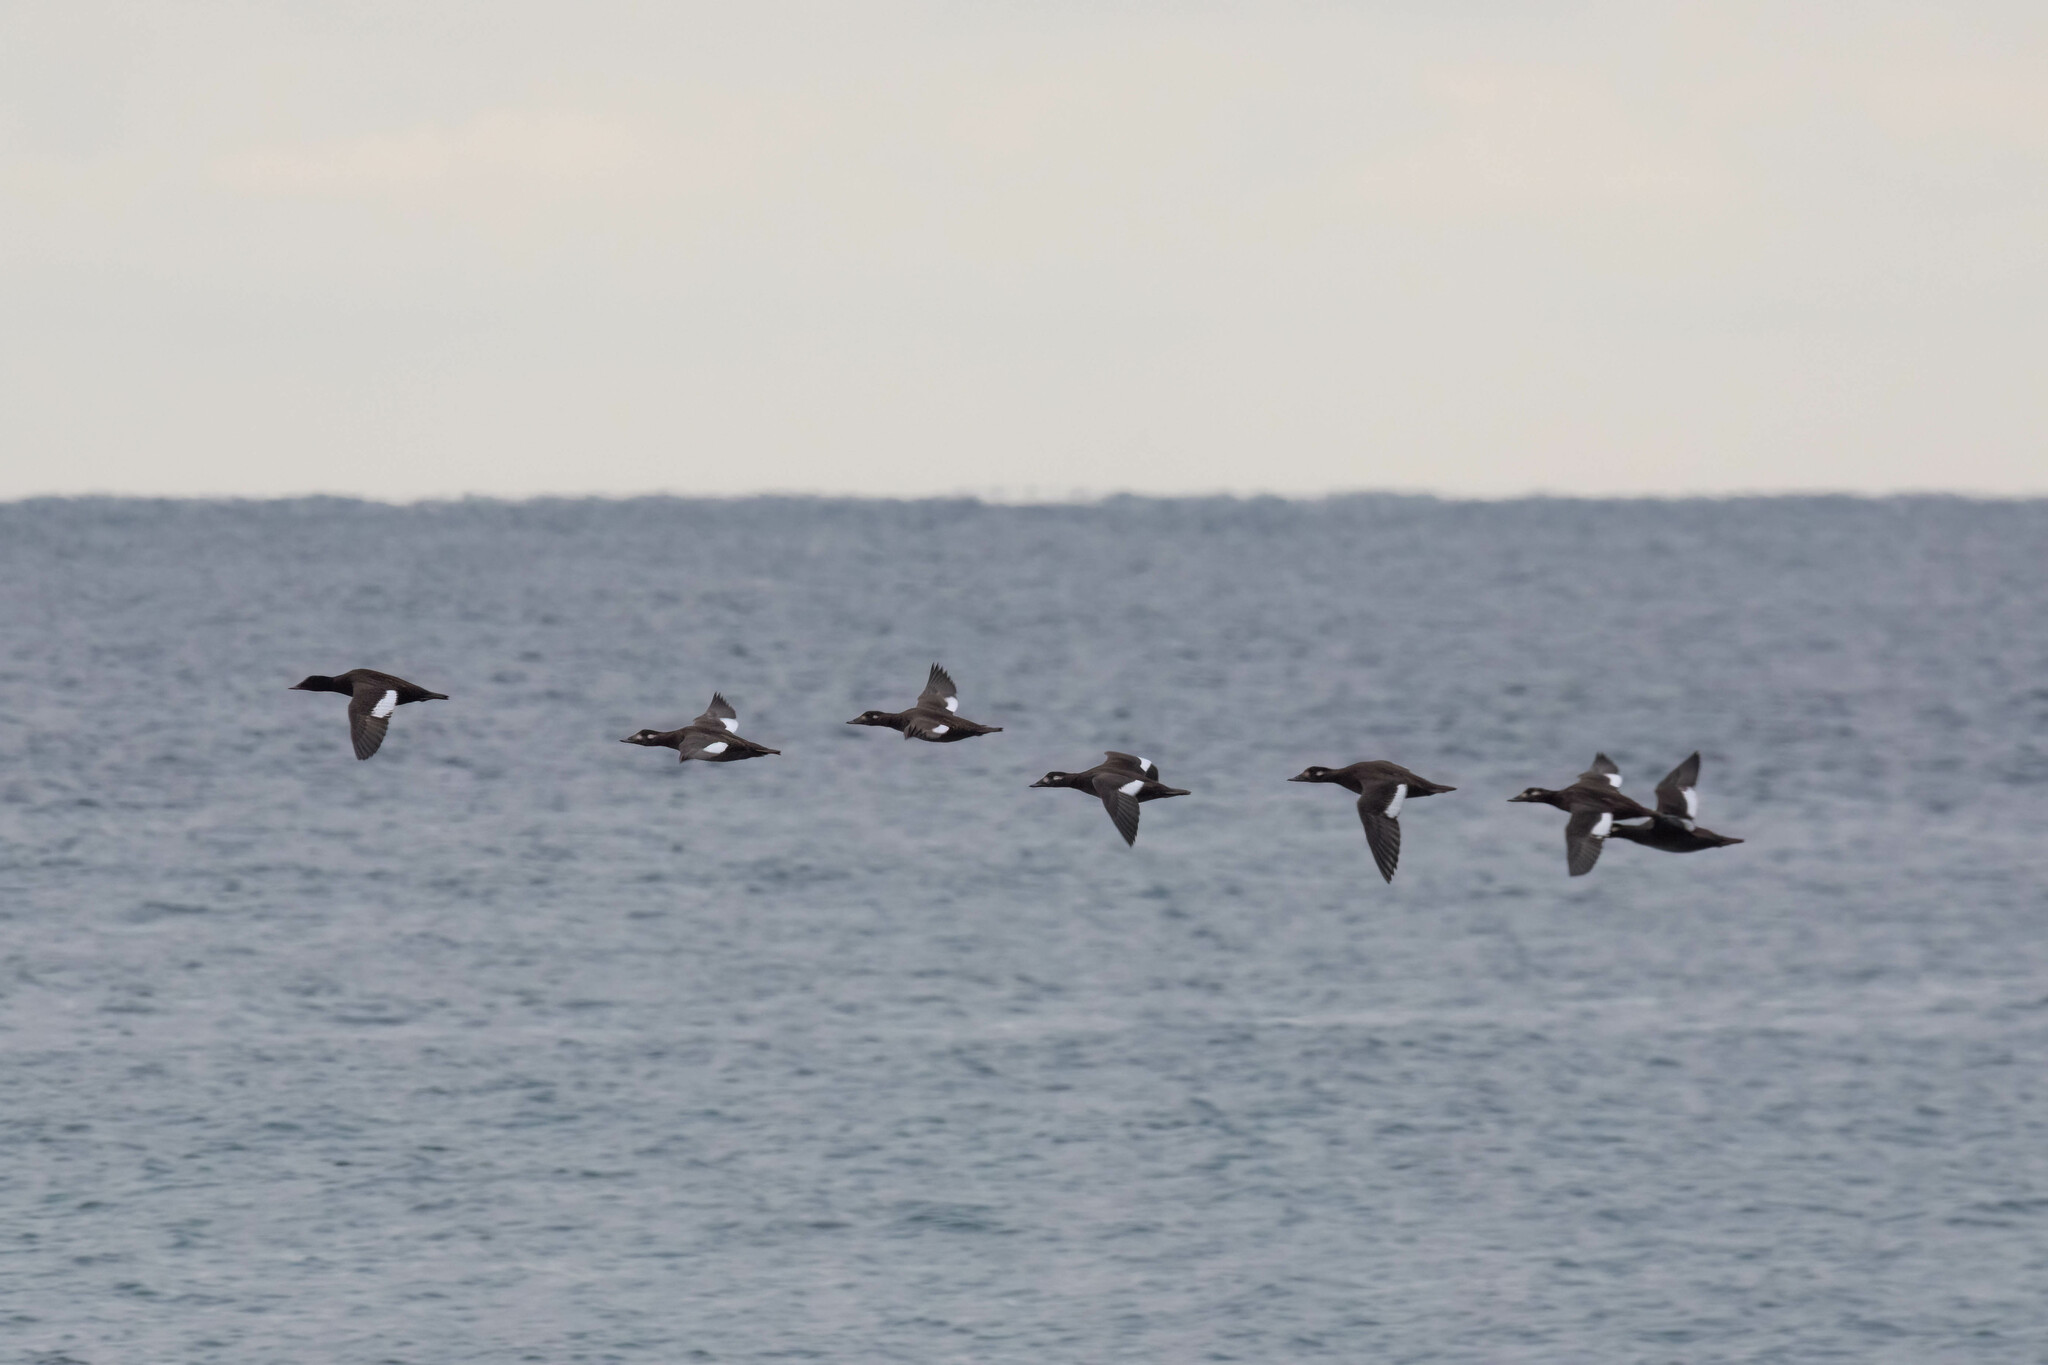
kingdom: Animalia
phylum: Chordata
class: Aves
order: Anseriformes
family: Anatidae
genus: Melanitta
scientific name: Melanitta deglandi
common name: White-winged scoter
